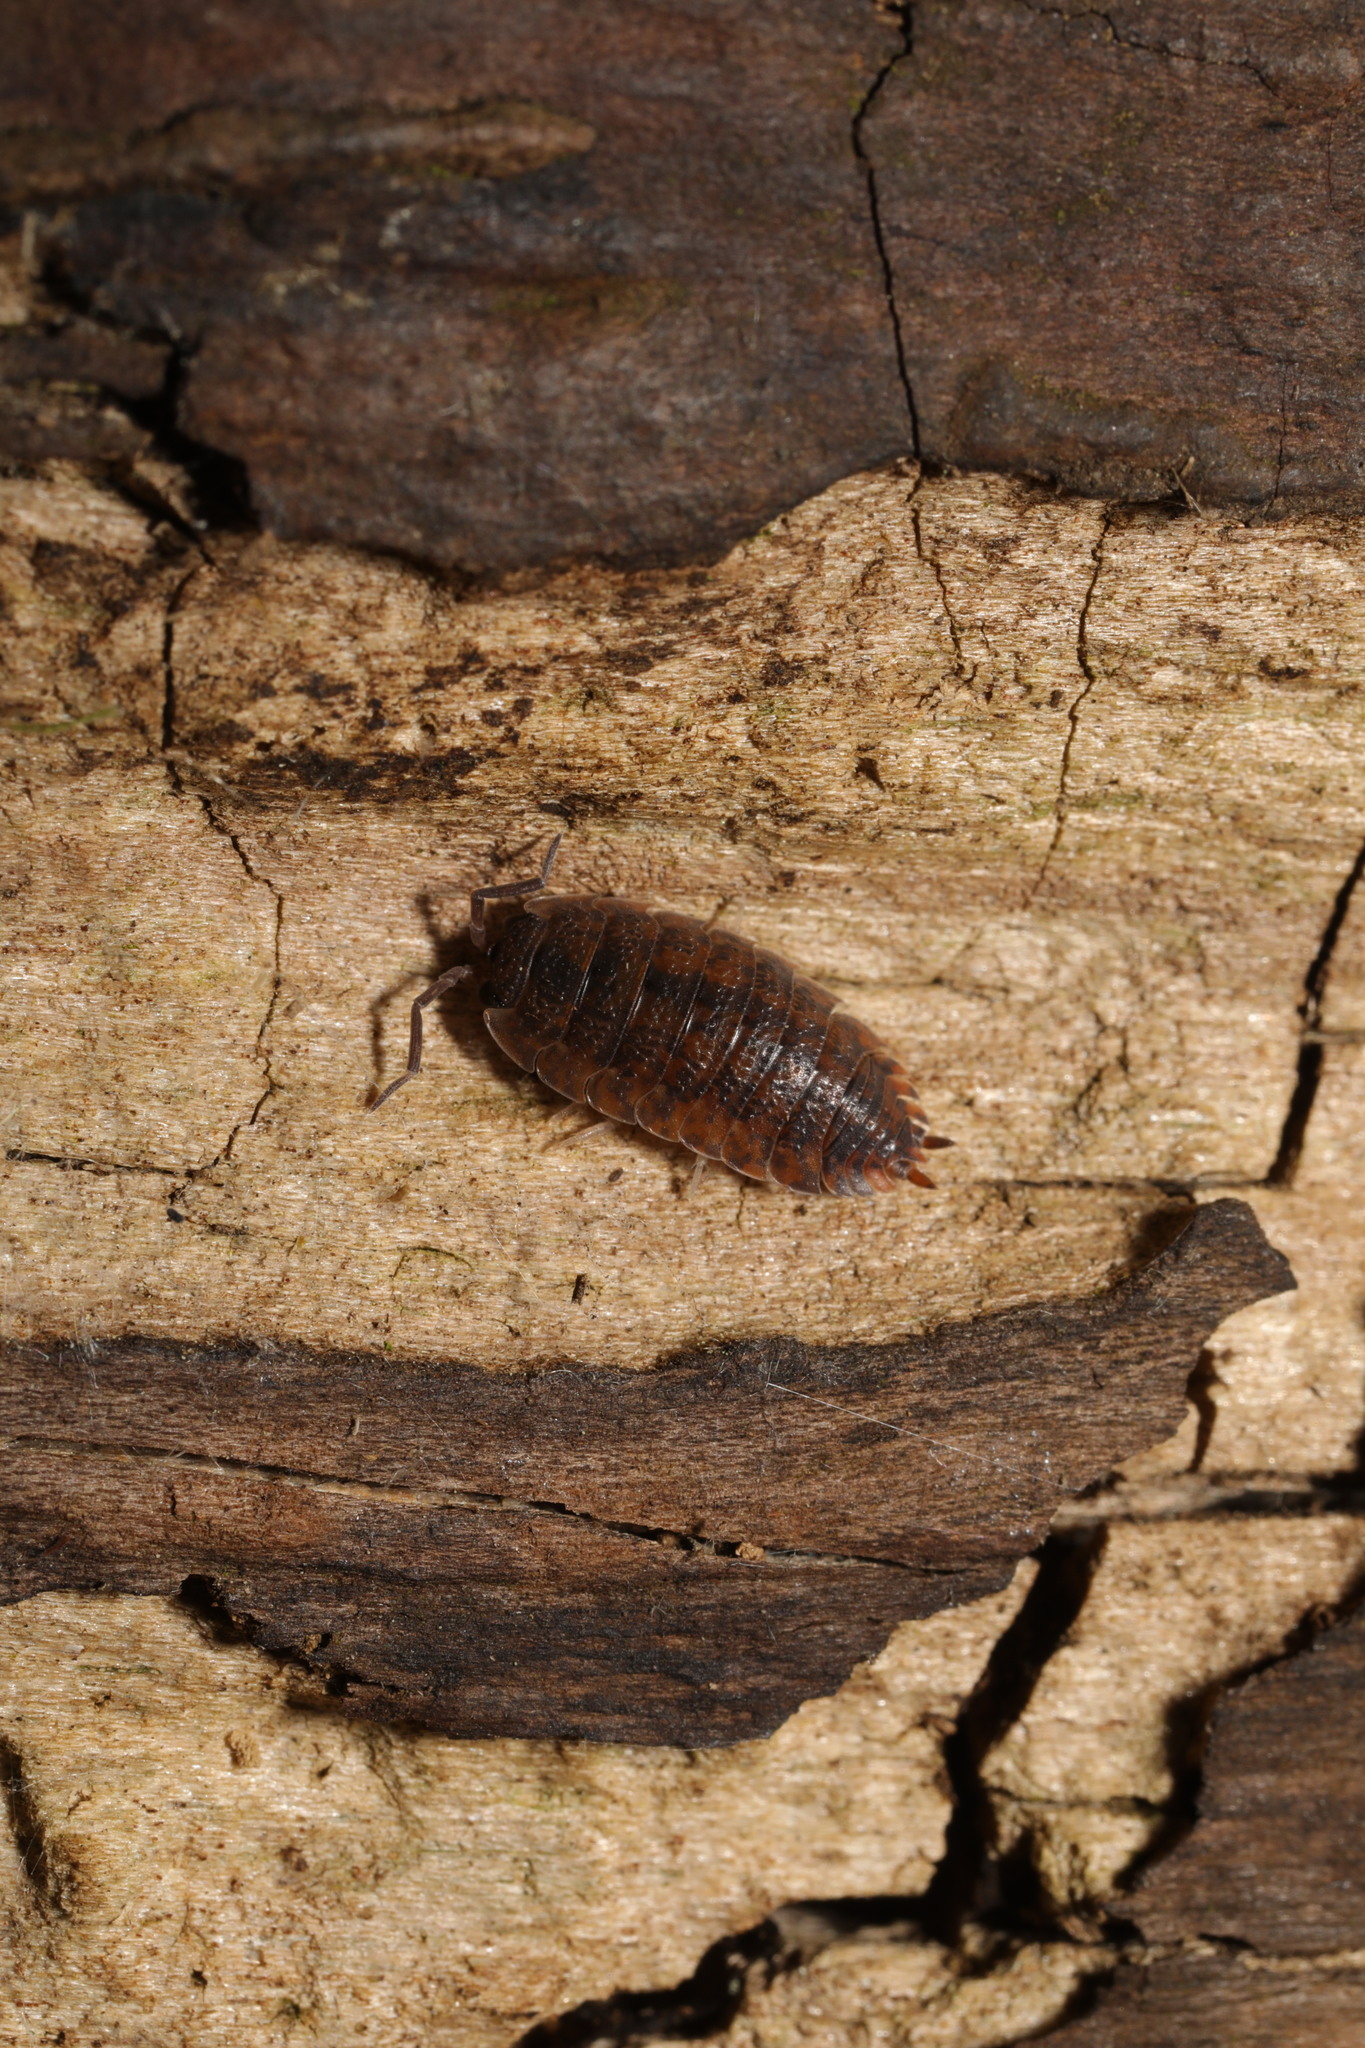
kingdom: Animalia
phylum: Arthropoda
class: Malacostraca
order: Isopoda
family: Porcellionidae
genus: Porcellio
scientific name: Porcellio scaber
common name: Common rough woodlouse
